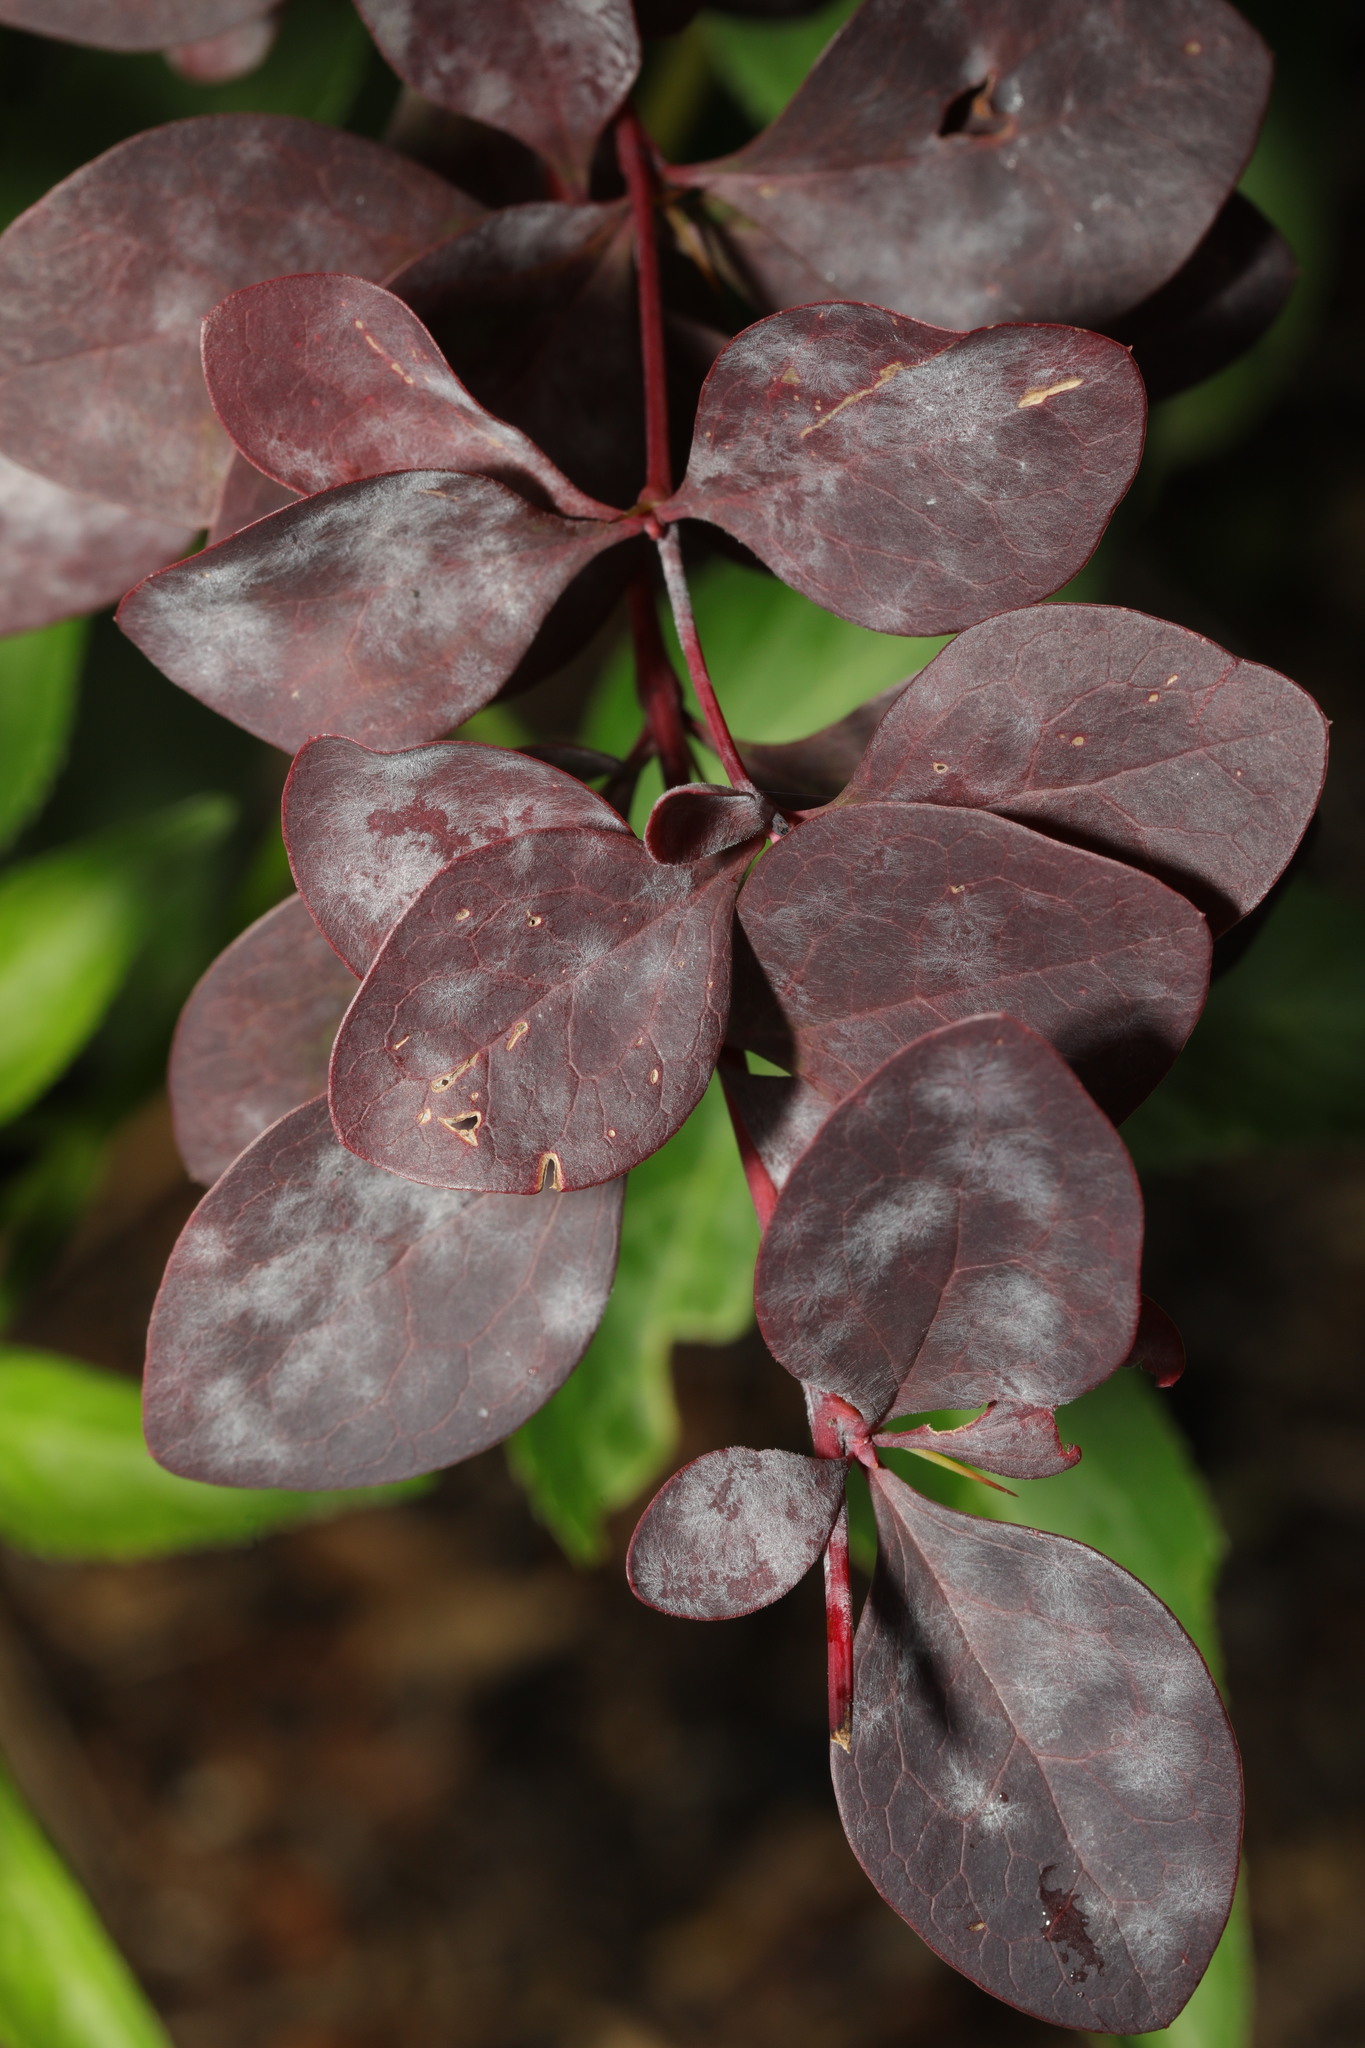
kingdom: Fungi
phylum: Ascomycota
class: Leotiomycetes
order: Helotiales
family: Erysiphaceae
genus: Erysiphe
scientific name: Erysiphe berberidis
